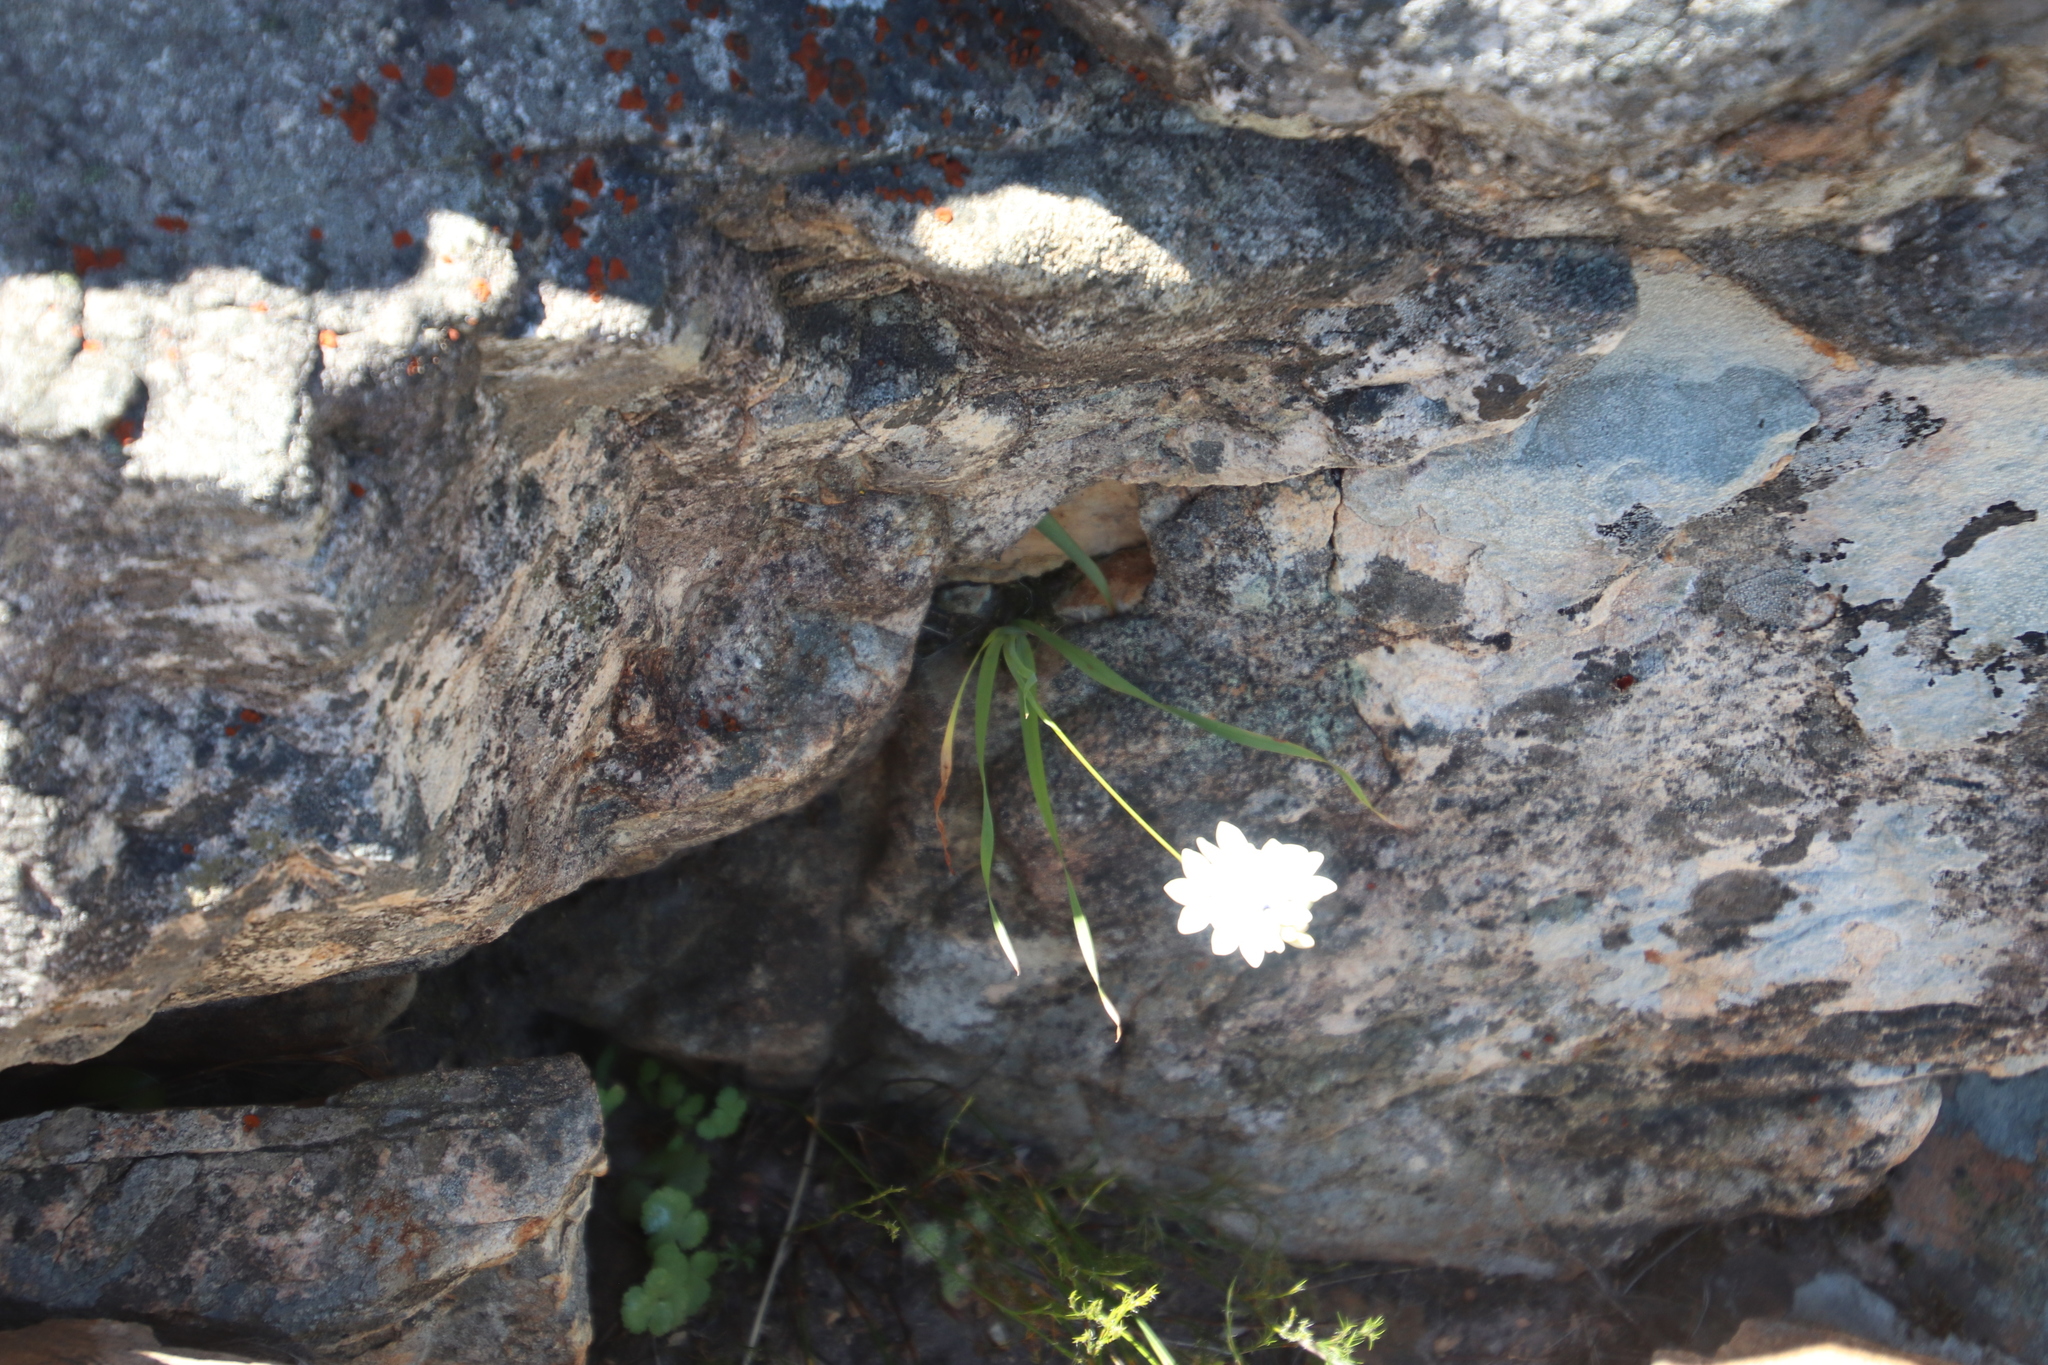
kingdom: Plantae
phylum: Tracheophyta
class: Liliopsida
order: Asparagales
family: Iridaceae
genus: Ixia
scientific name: Ixia polystachya
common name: White-and-yellow-flower cornlily
